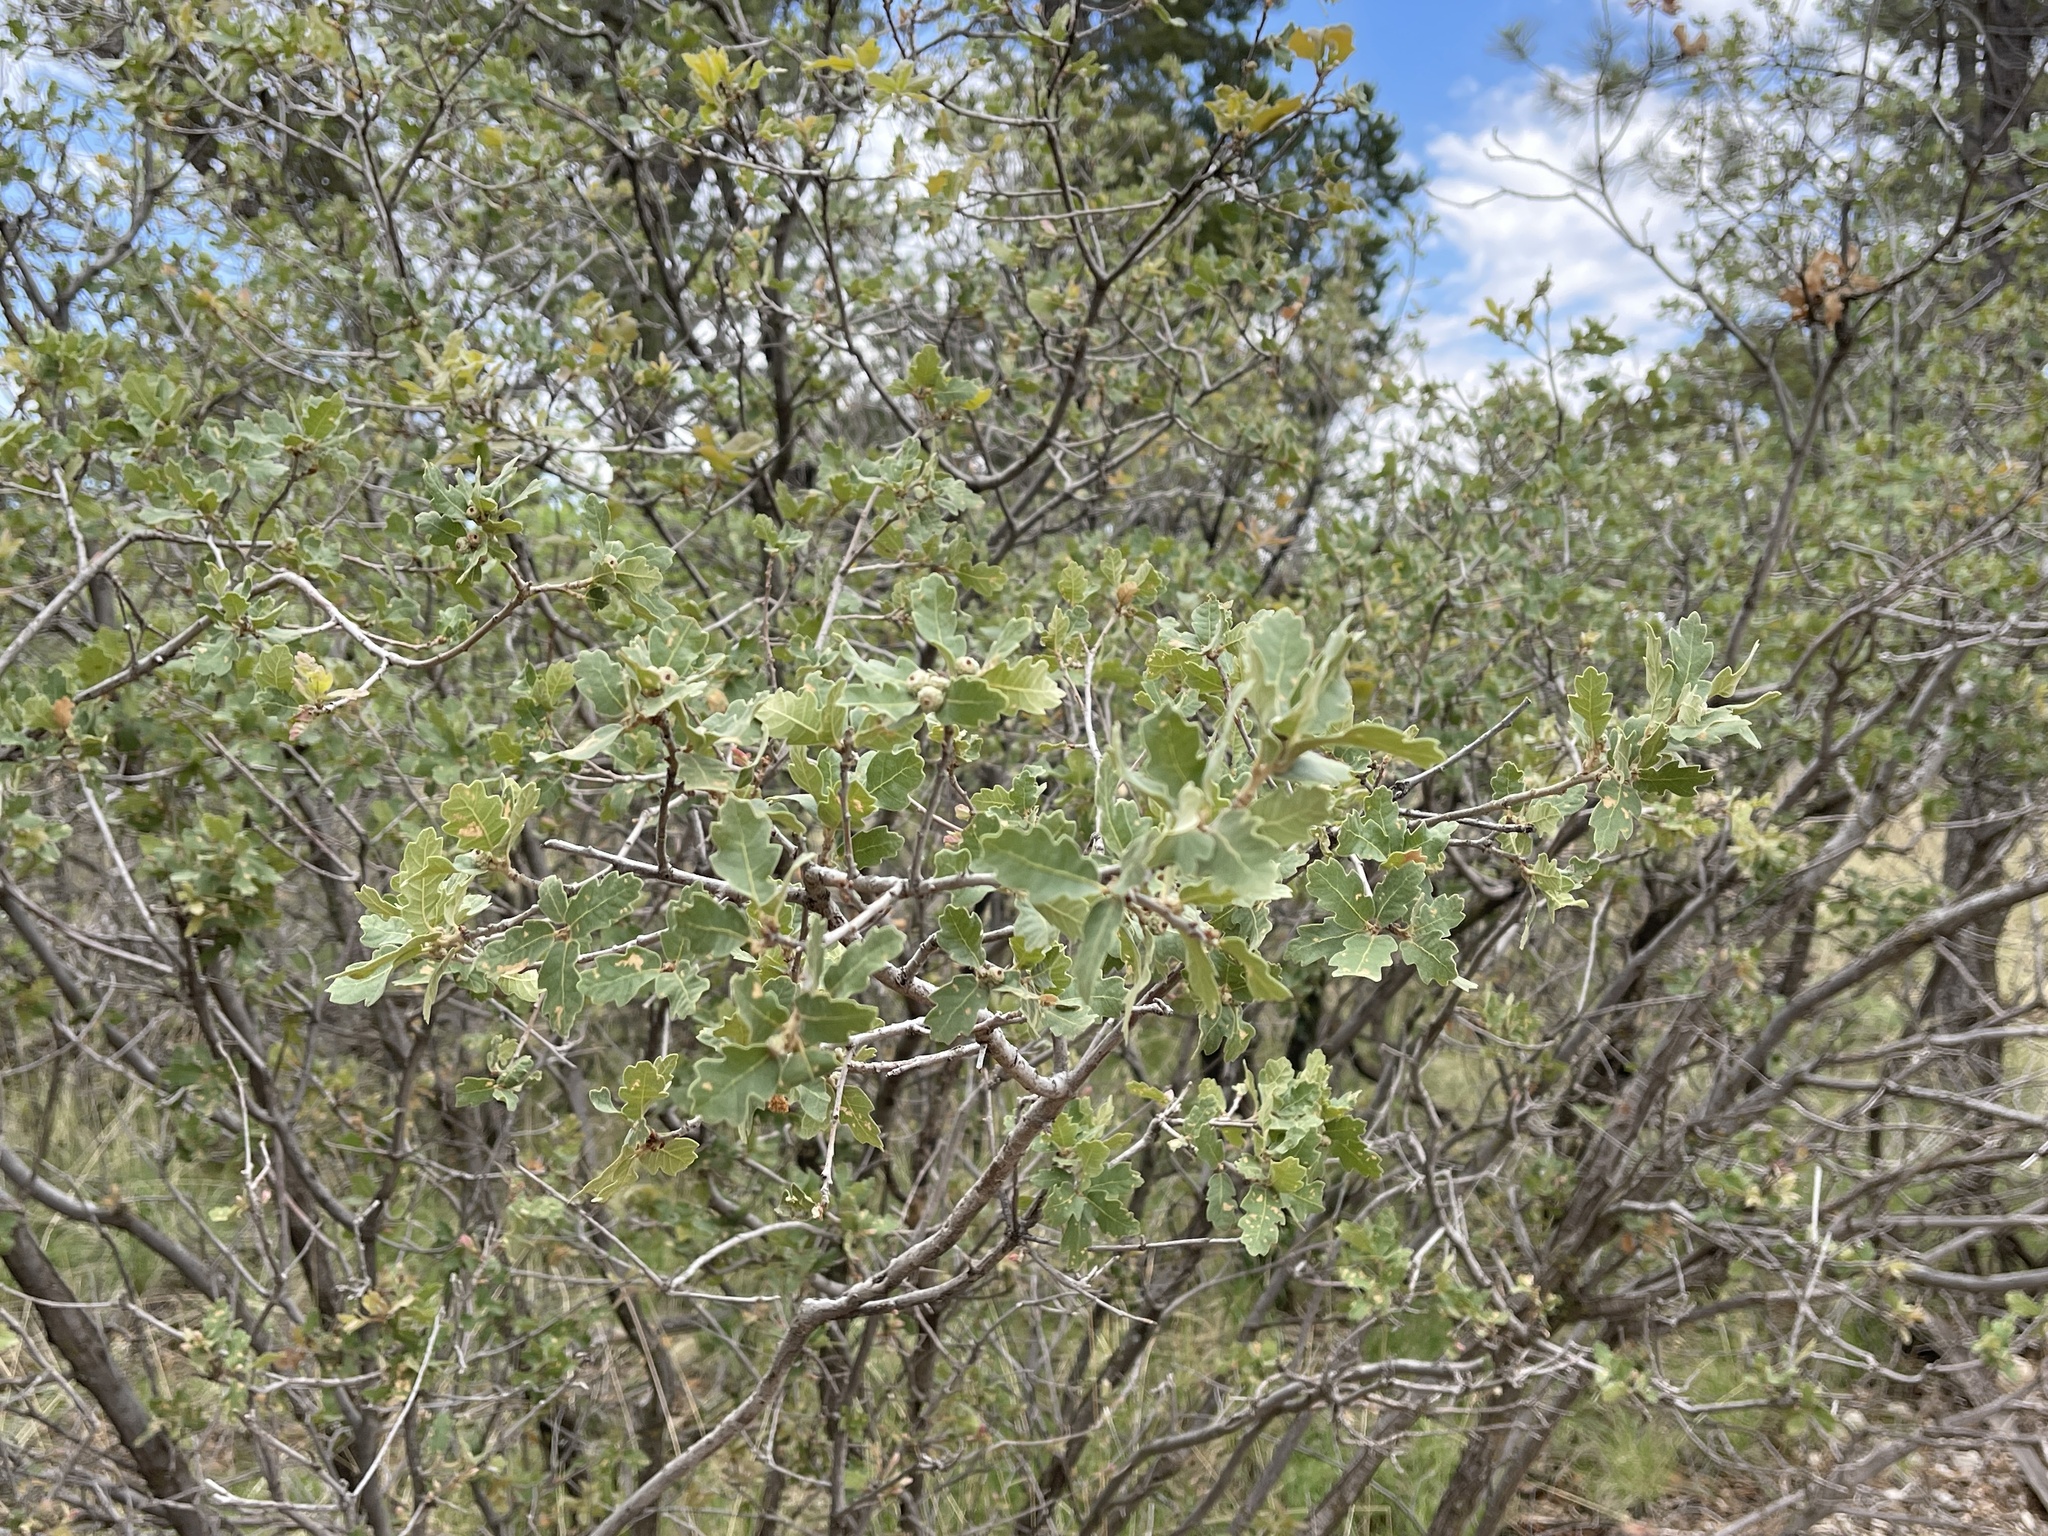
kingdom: Plantae
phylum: Tracheophyta
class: Magnoliopsida
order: Fagales
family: Fagaceae
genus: Quercus
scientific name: Quercus undulata
